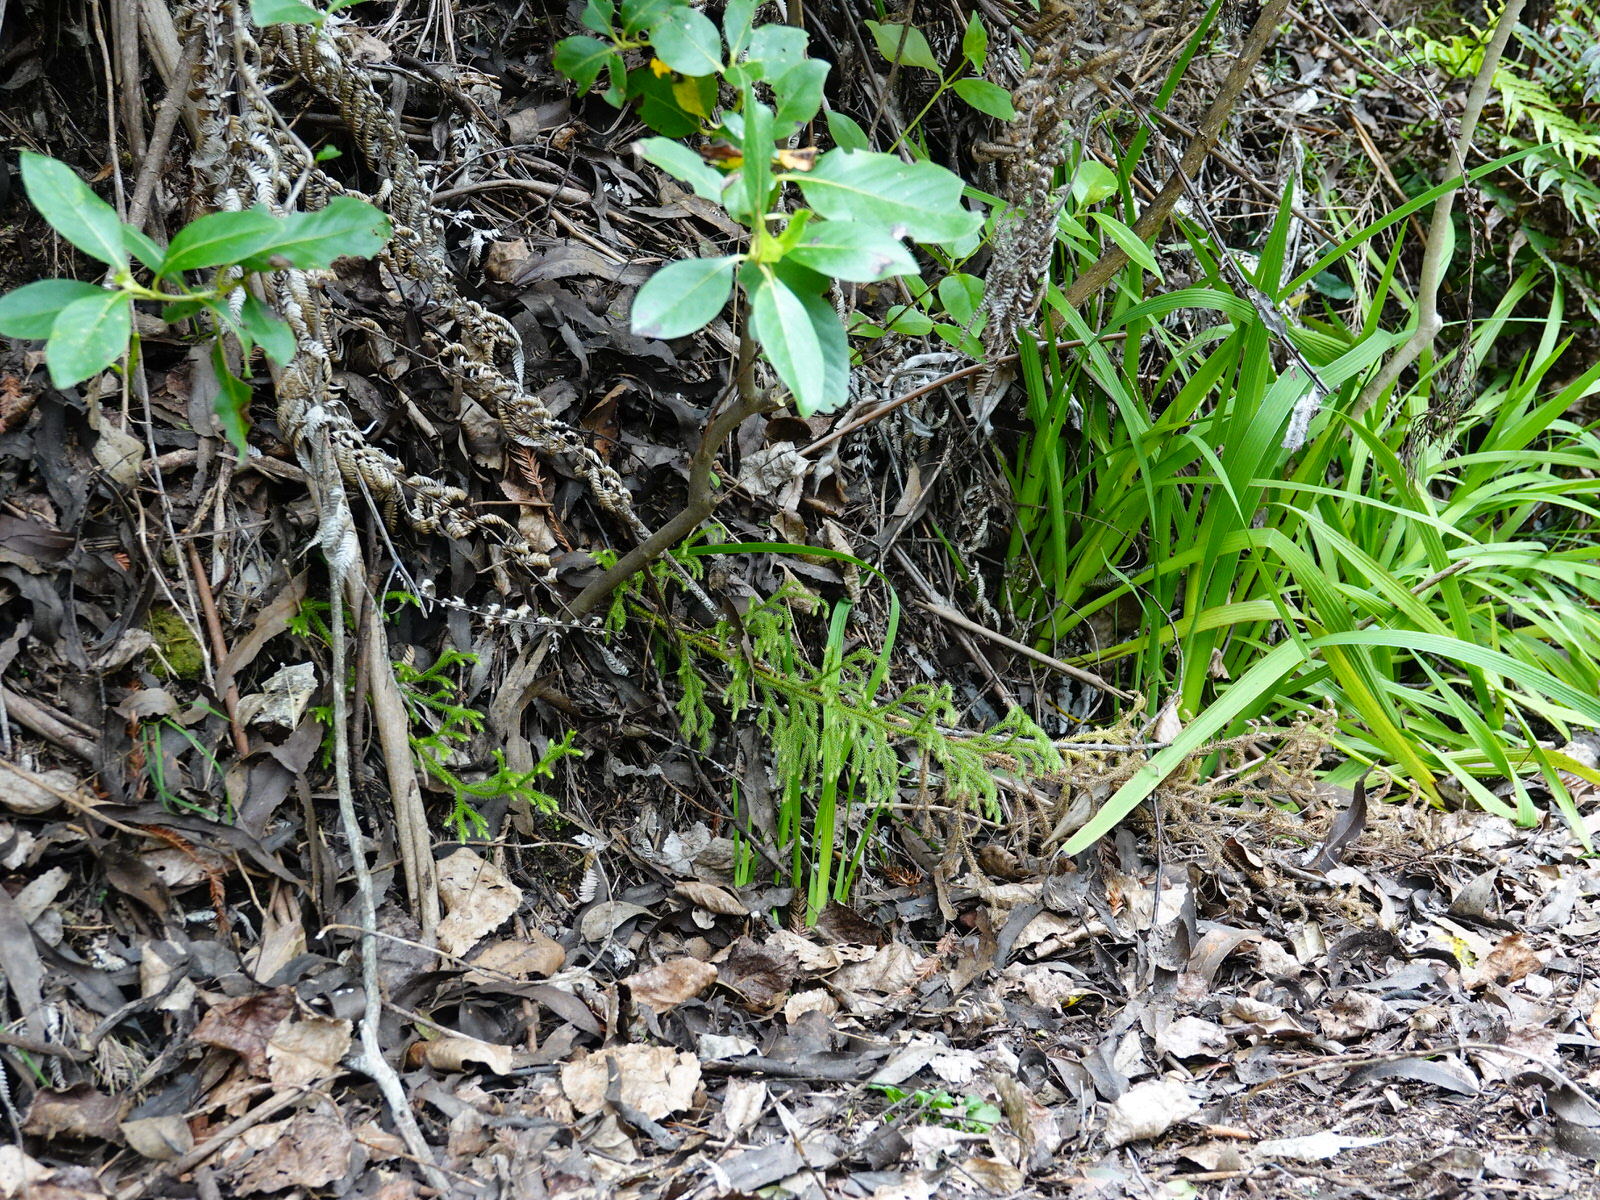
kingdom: Plantae
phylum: Tracheophyta
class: Lycopodiopsida
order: Lycopodiales
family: Lycopodiaceae
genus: Palhinhaea
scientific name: Palhinhaea cernua
